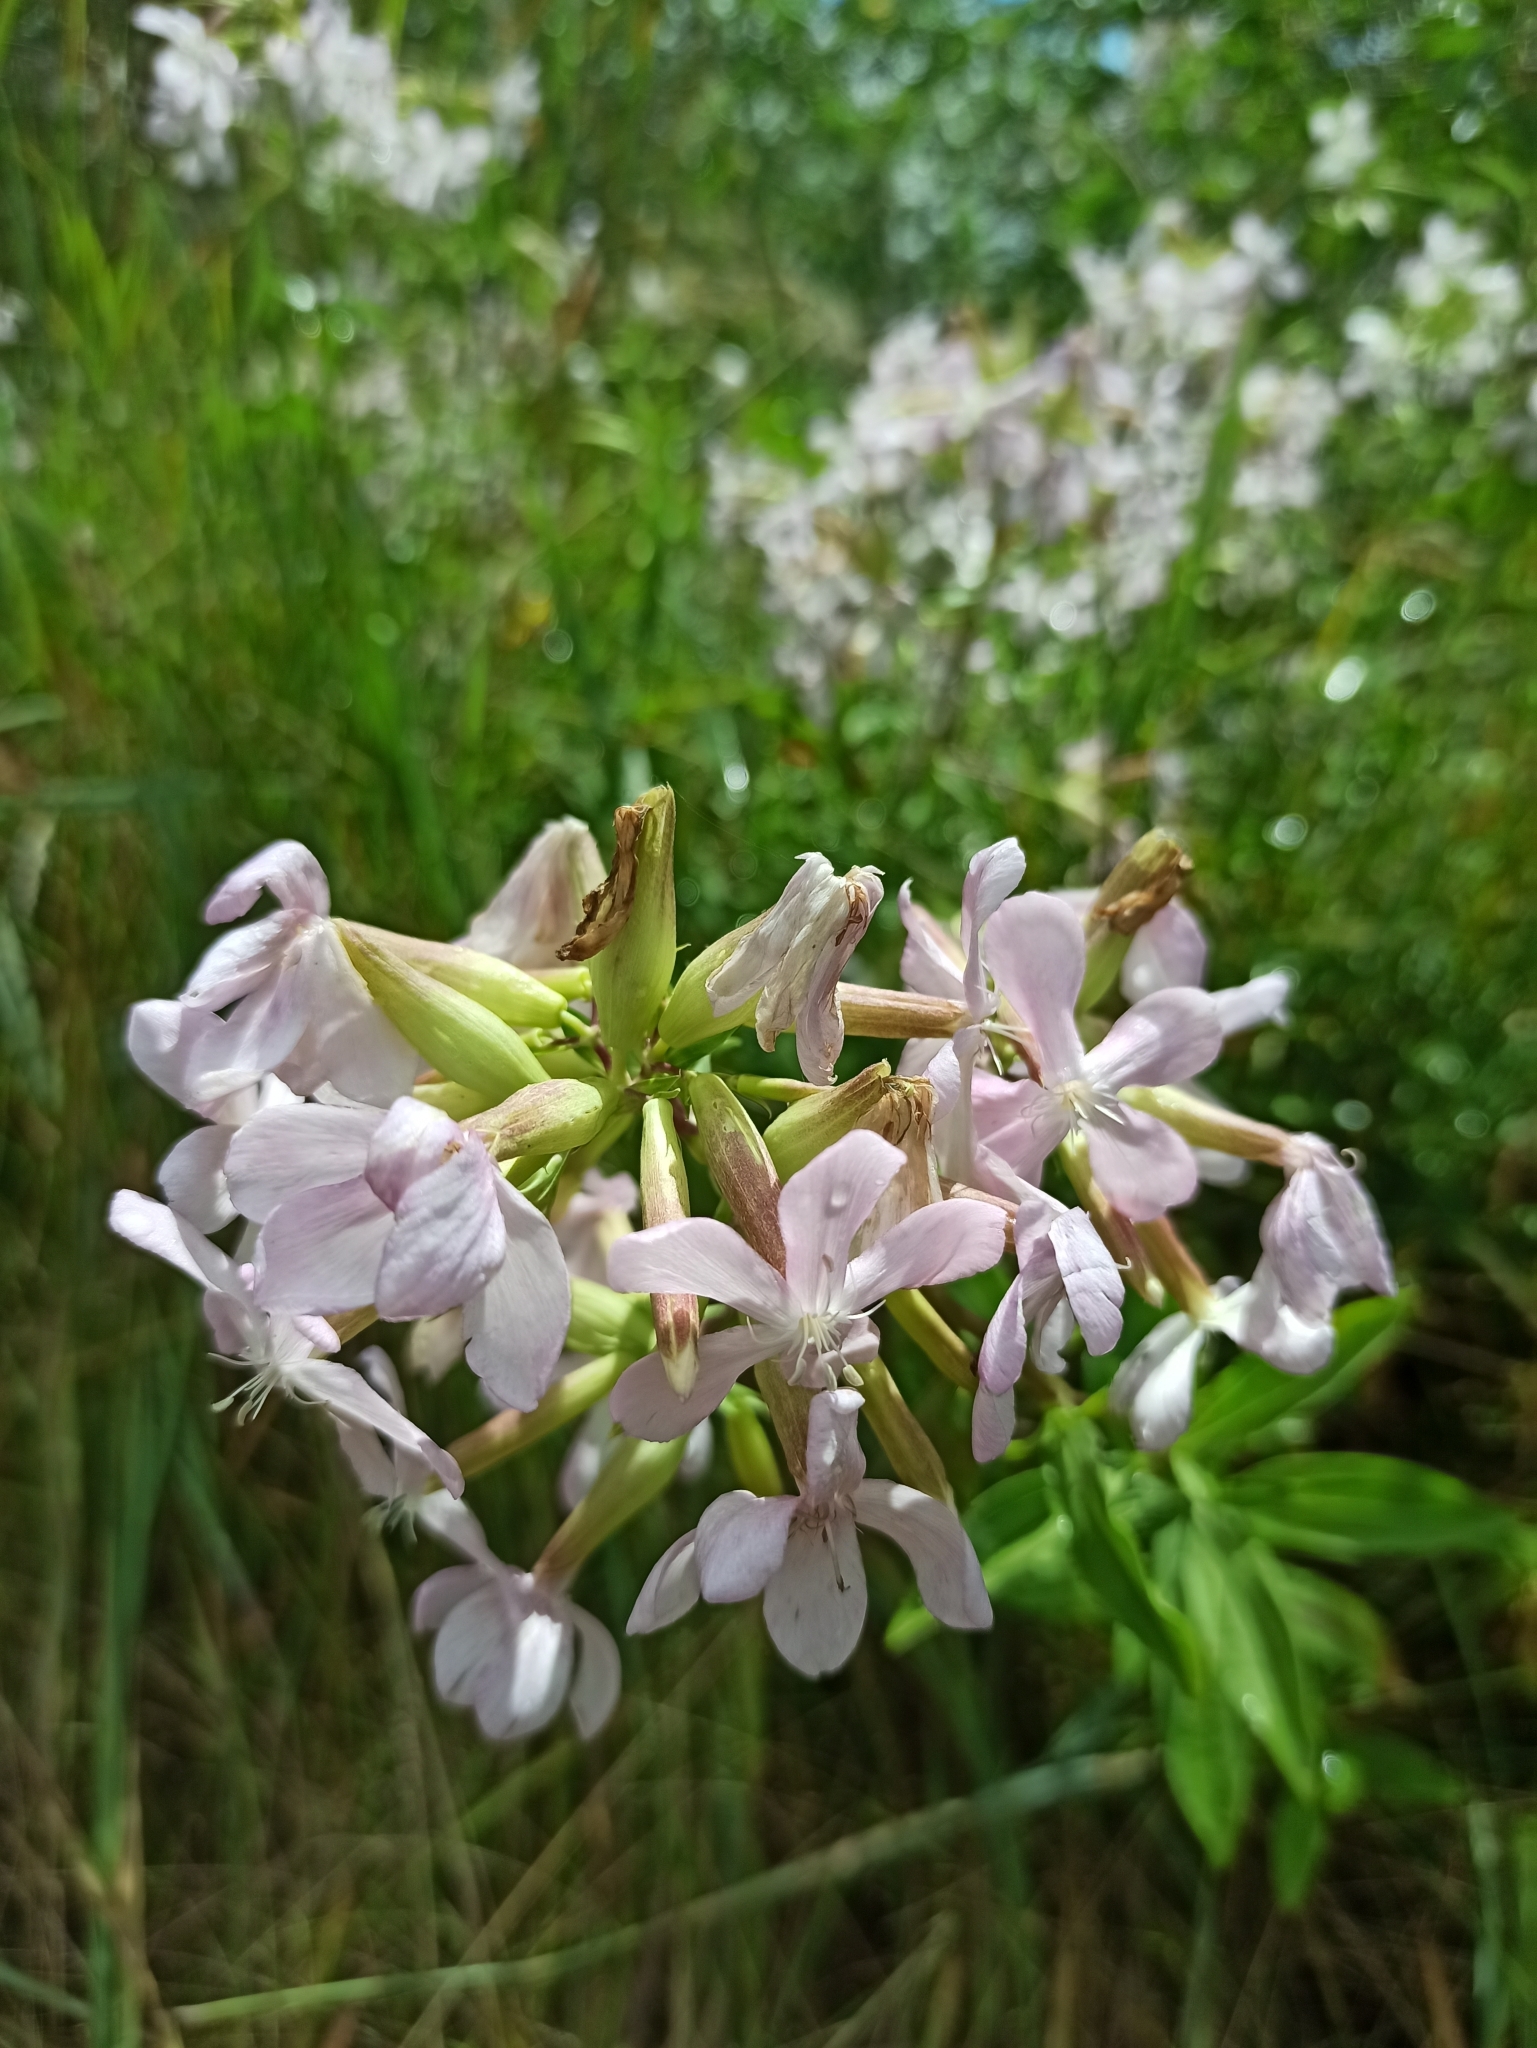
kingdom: Plantae
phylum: Tracheophyta
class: Magnoliopsida
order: Caryophyllales
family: Caryophyllaceae
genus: Saponaria
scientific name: Saponaria officinalis
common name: Soapwort
